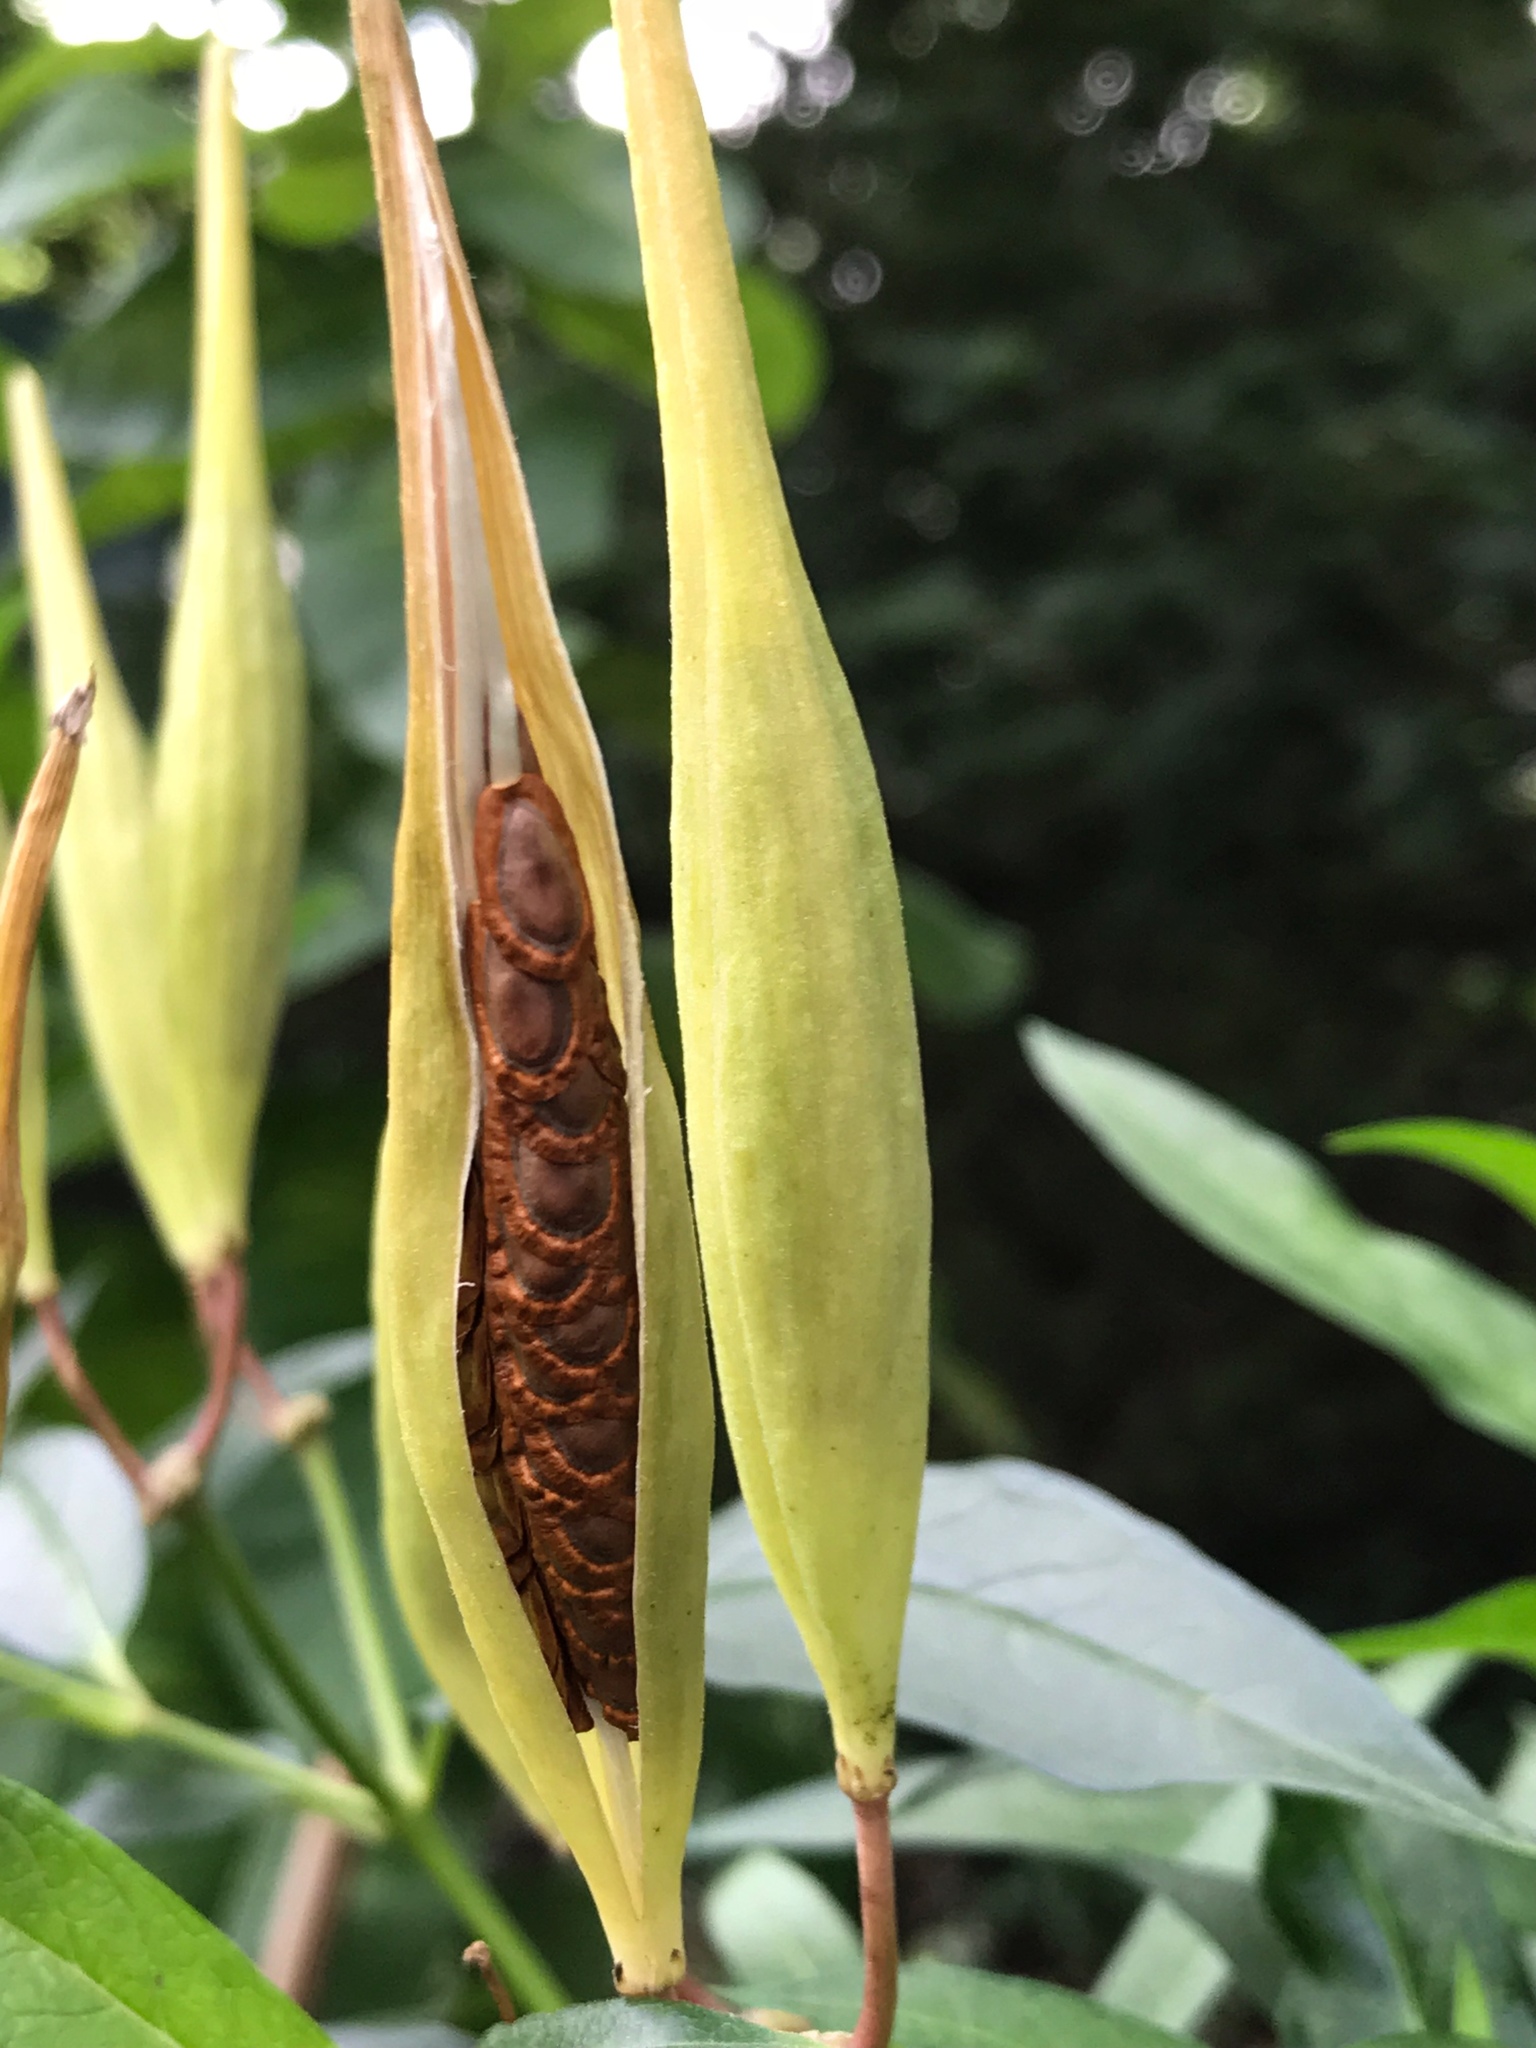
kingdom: Plantae
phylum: Tracheophyta
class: Magnoliopsida
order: Gentianales
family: Apocynaceae
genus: Asclepias
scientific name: Asclepias incarnata
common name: Swamp milkweed
